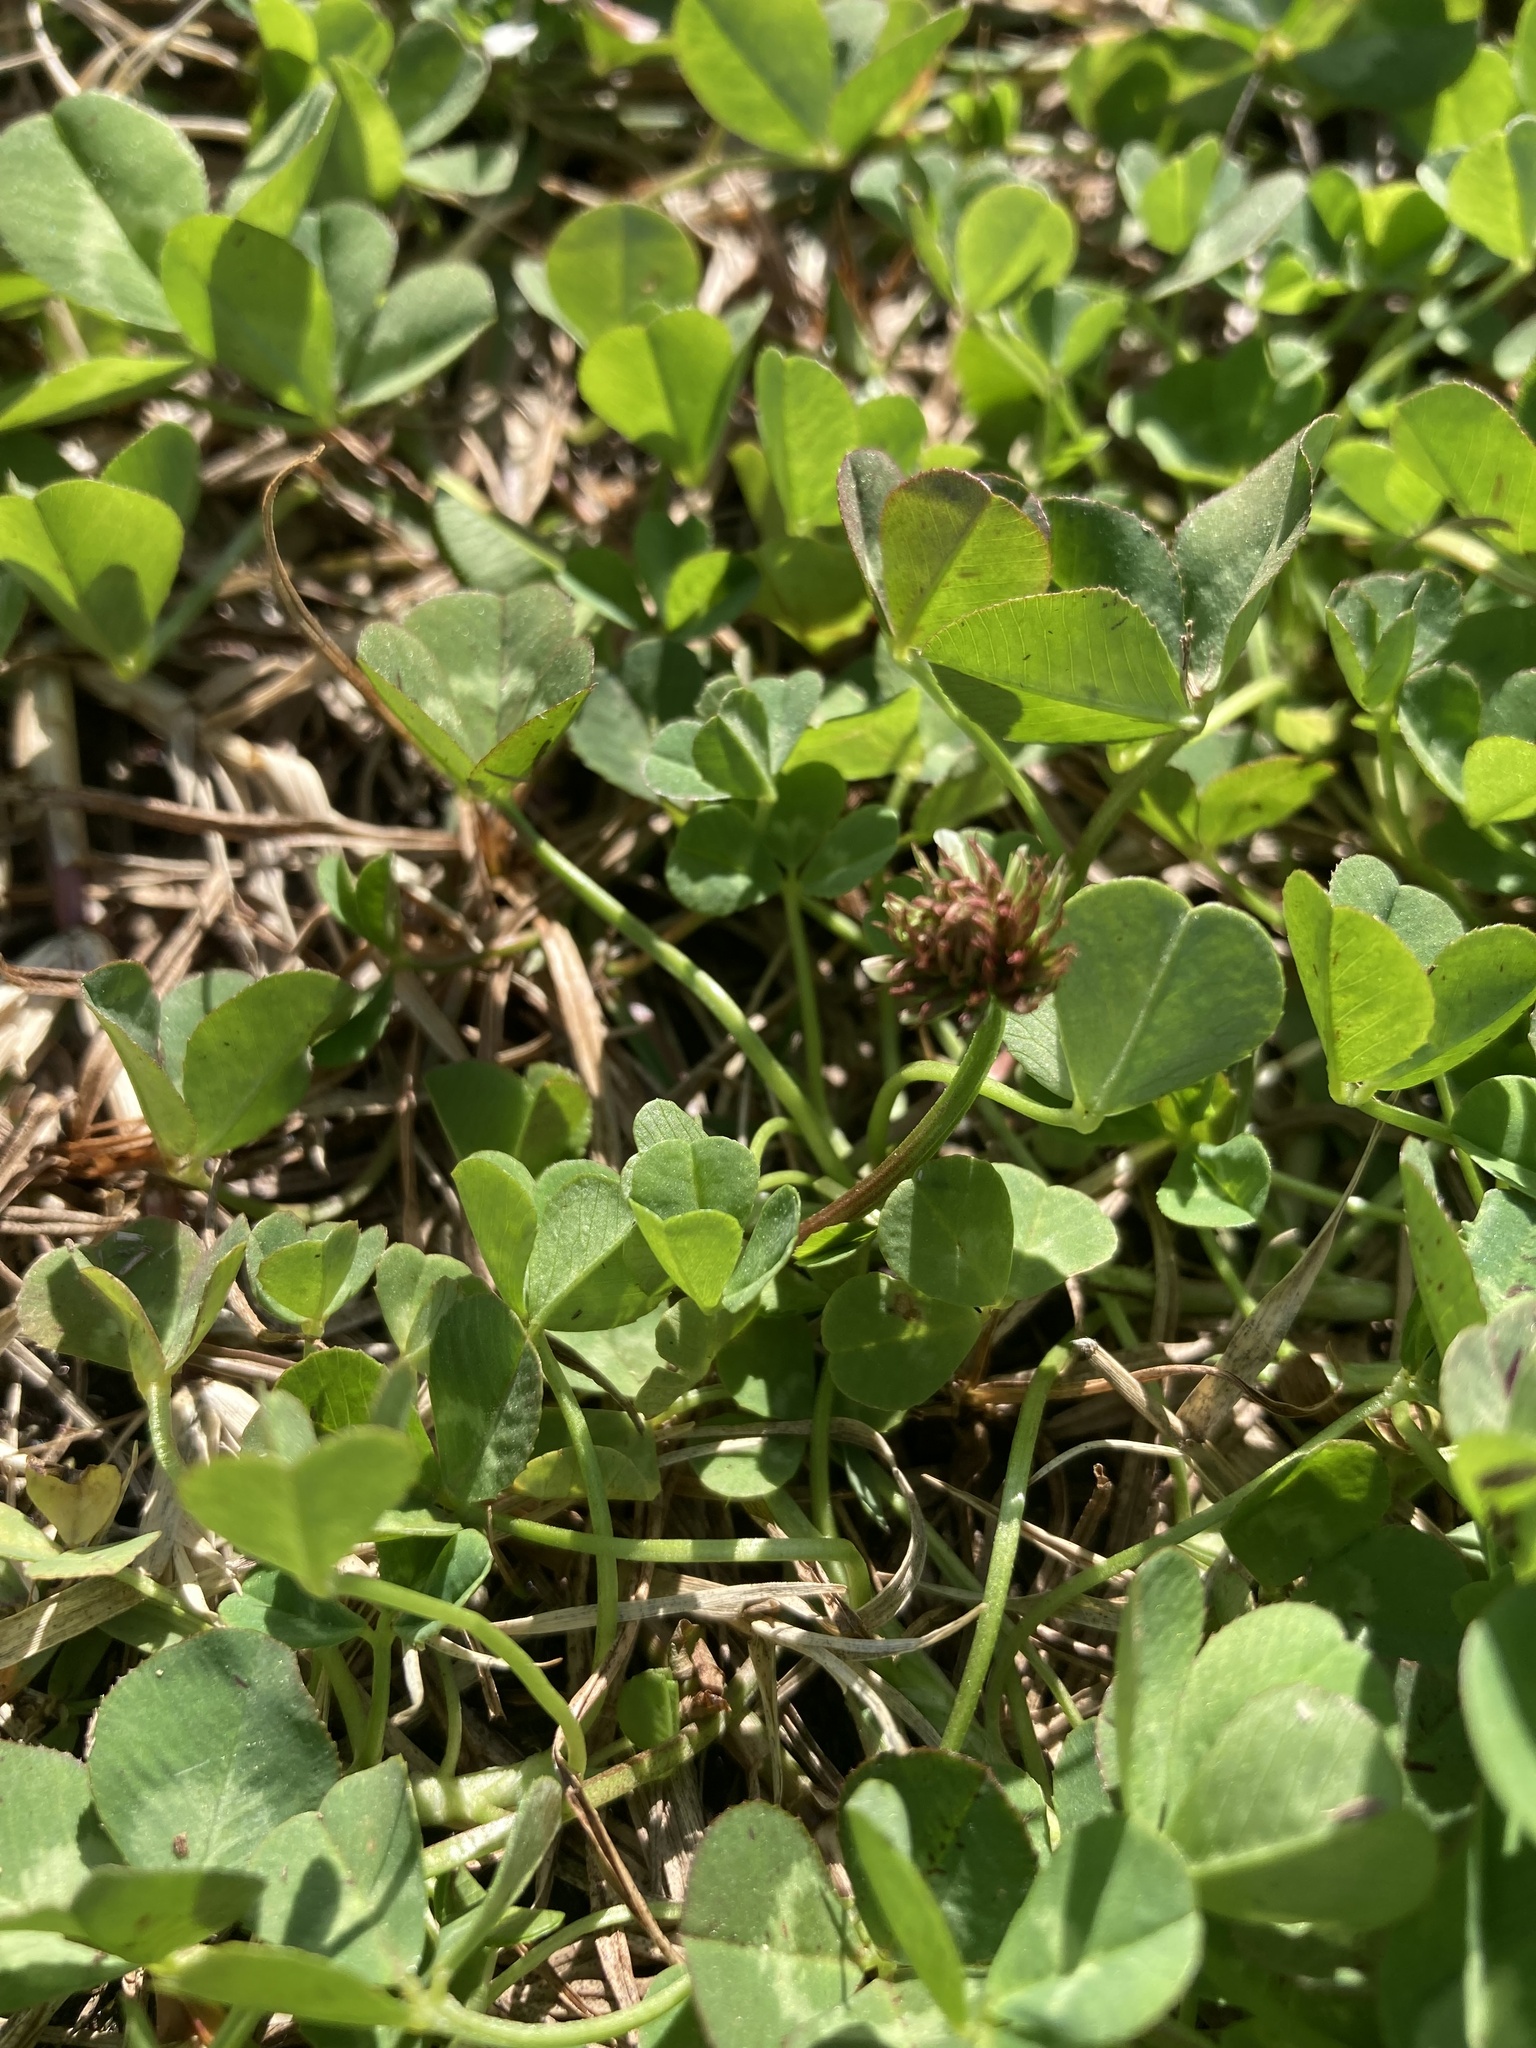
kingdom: Plantae
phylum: Tracheophyta
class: Magnoliopsida
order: Fabales
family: Fabaceae
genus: Trifolium
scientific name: Trifolium repens
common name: White clover
